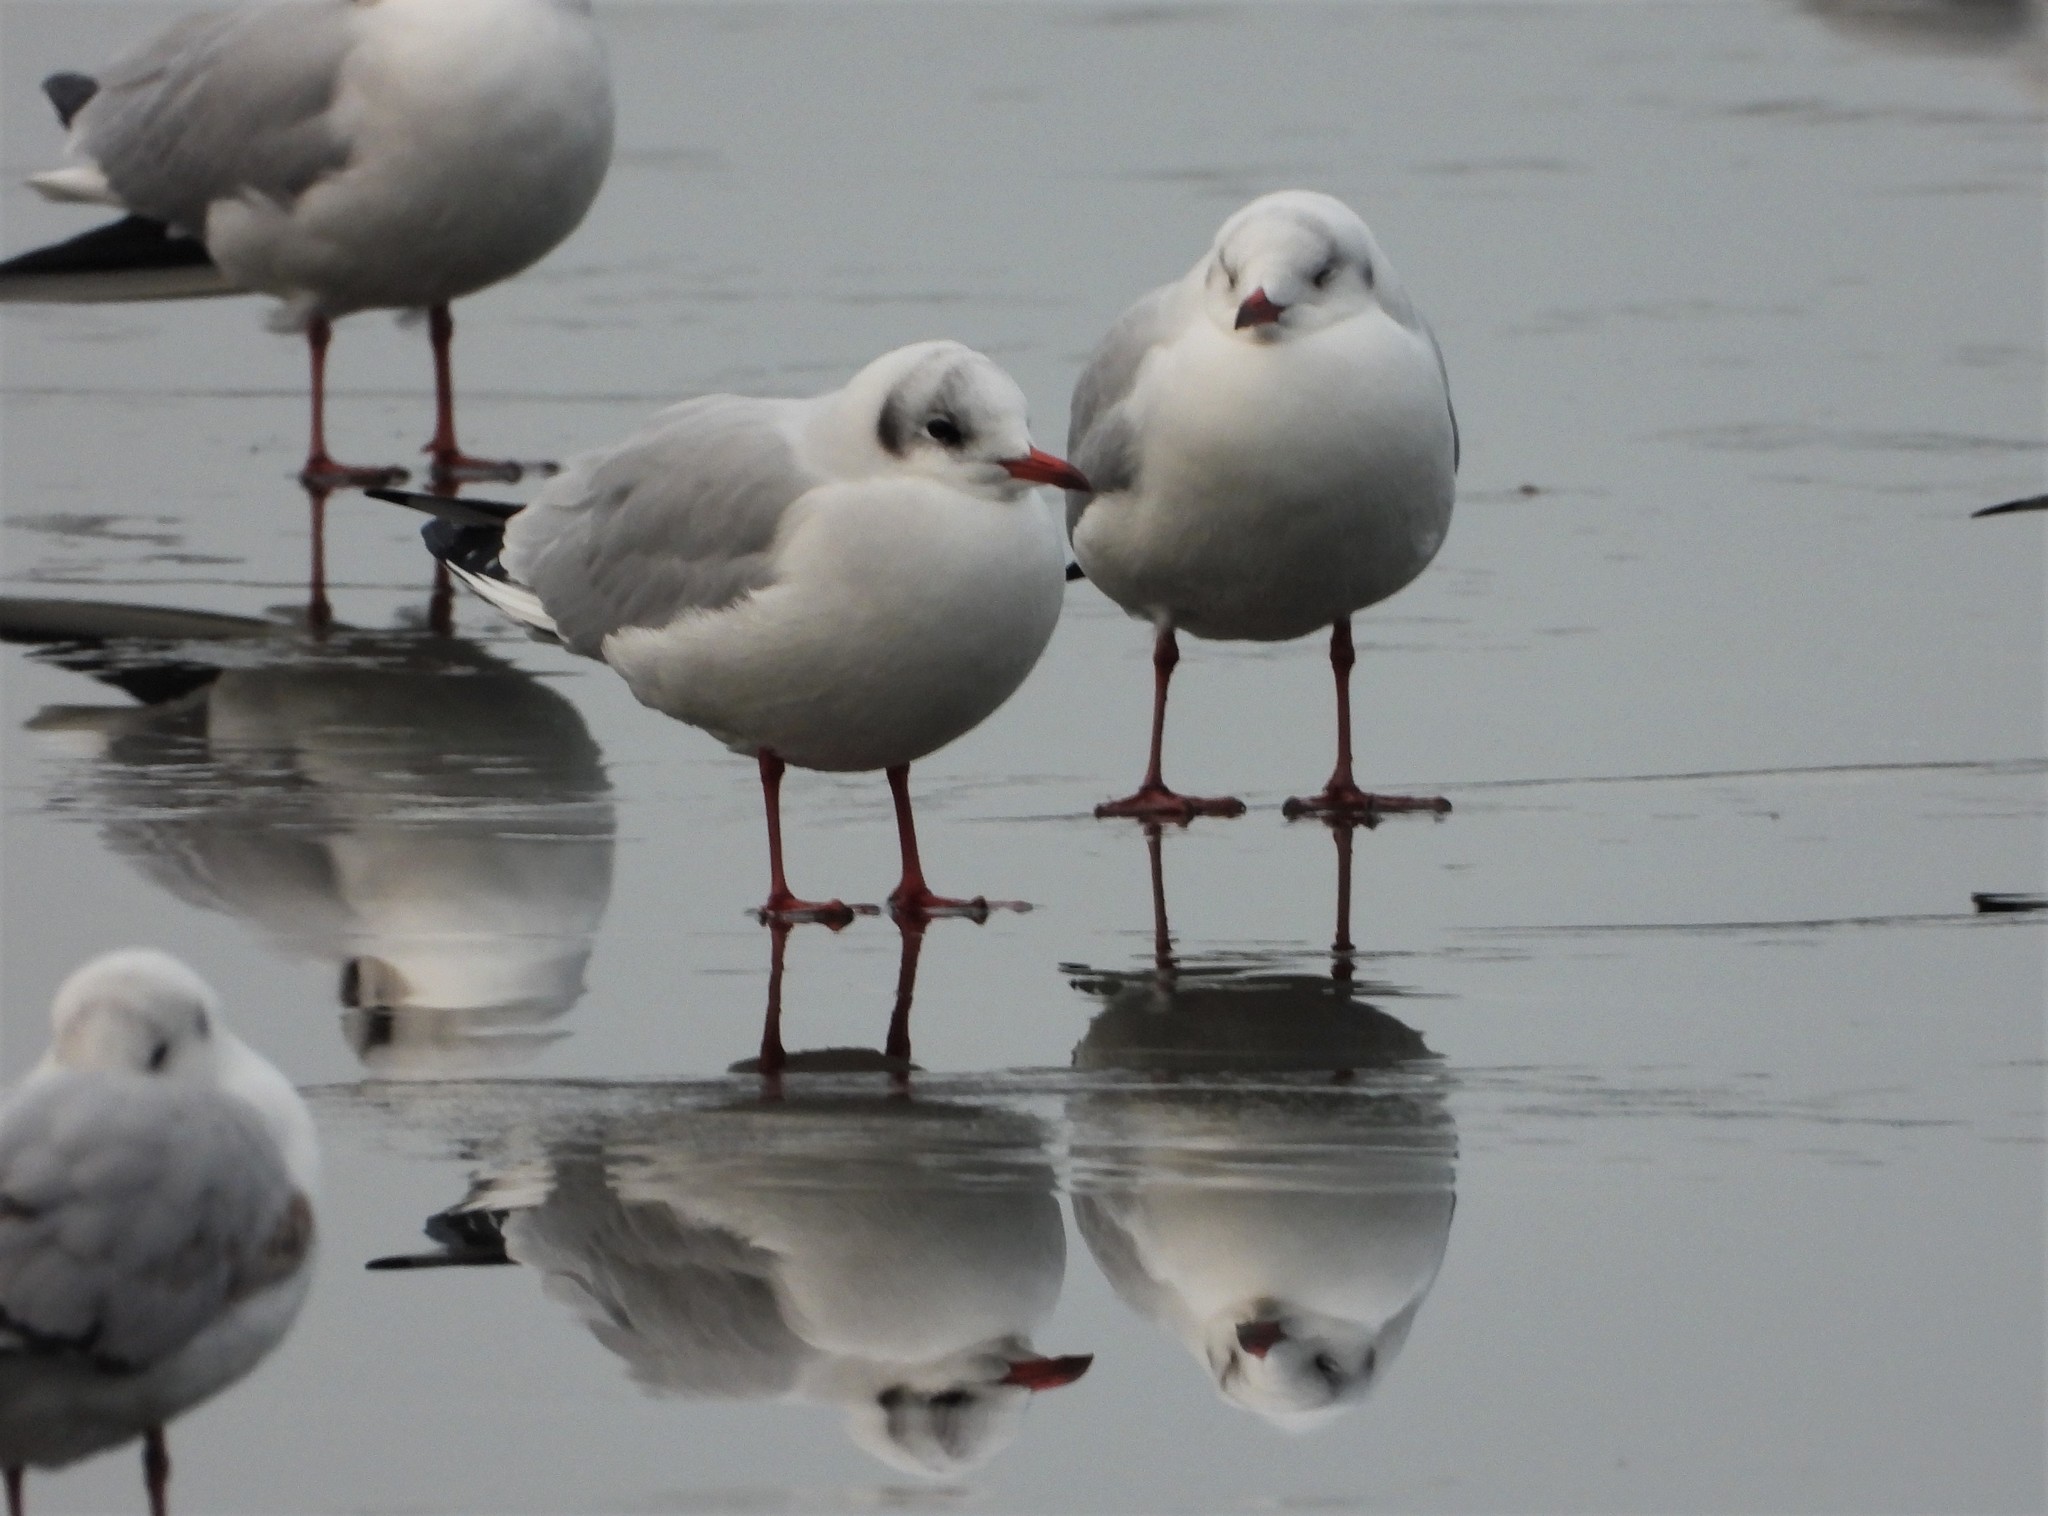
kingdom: Animalia
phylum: Chordata
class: Aves
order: Charadriiformes
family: Laridae
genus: Chroicocephalus
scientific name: Chroicocephalus ridibundus
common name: Black-headed gull
